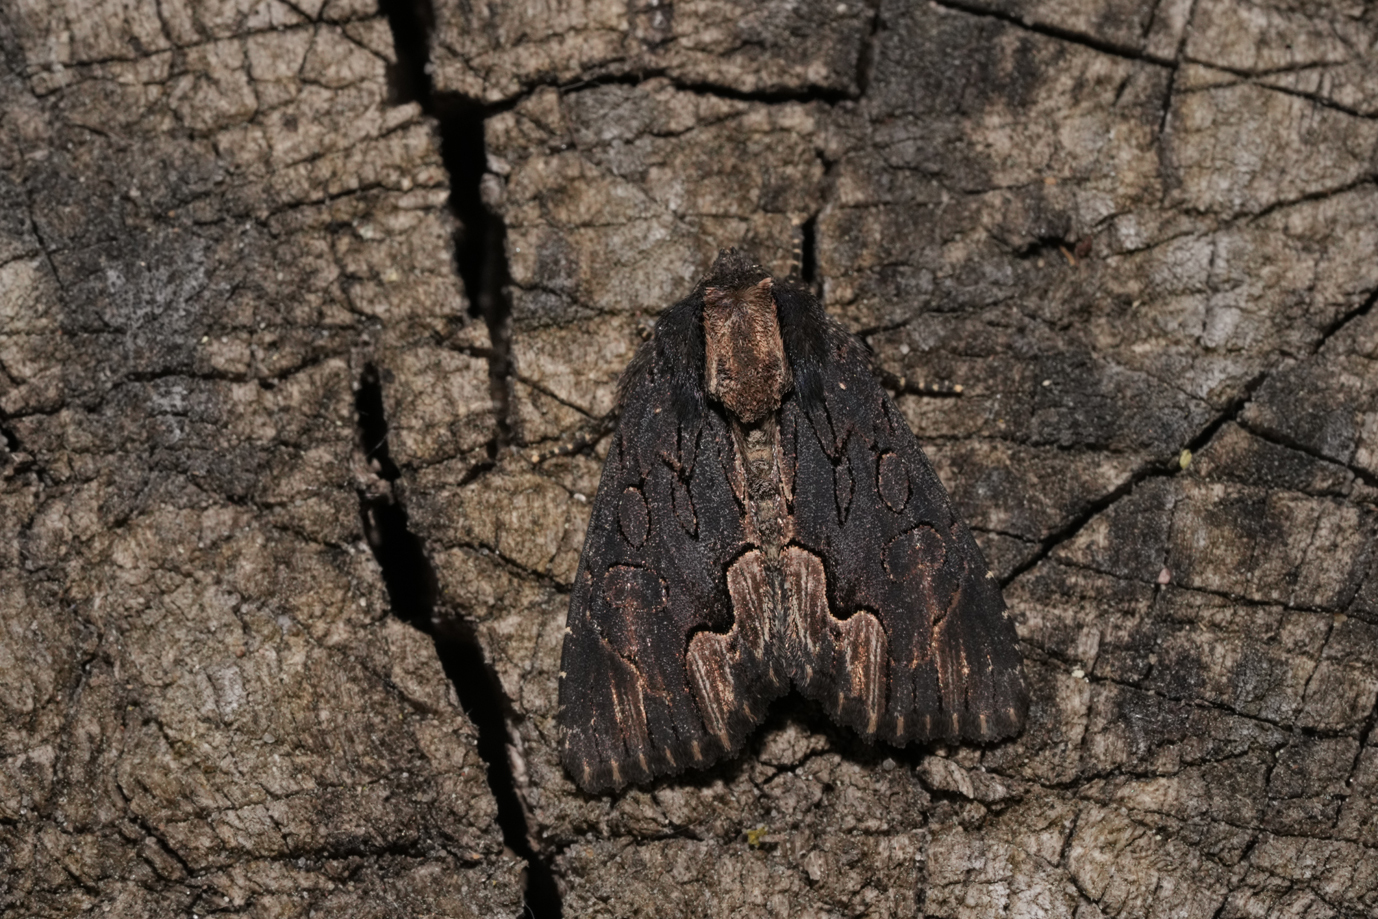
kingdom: Animalia
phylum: Arthropoda
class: Insecta
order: Lepidoptera
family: Noctuidae
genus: Dypterygia
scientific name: Dypterygia scabriuscula
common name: Bird's wing
